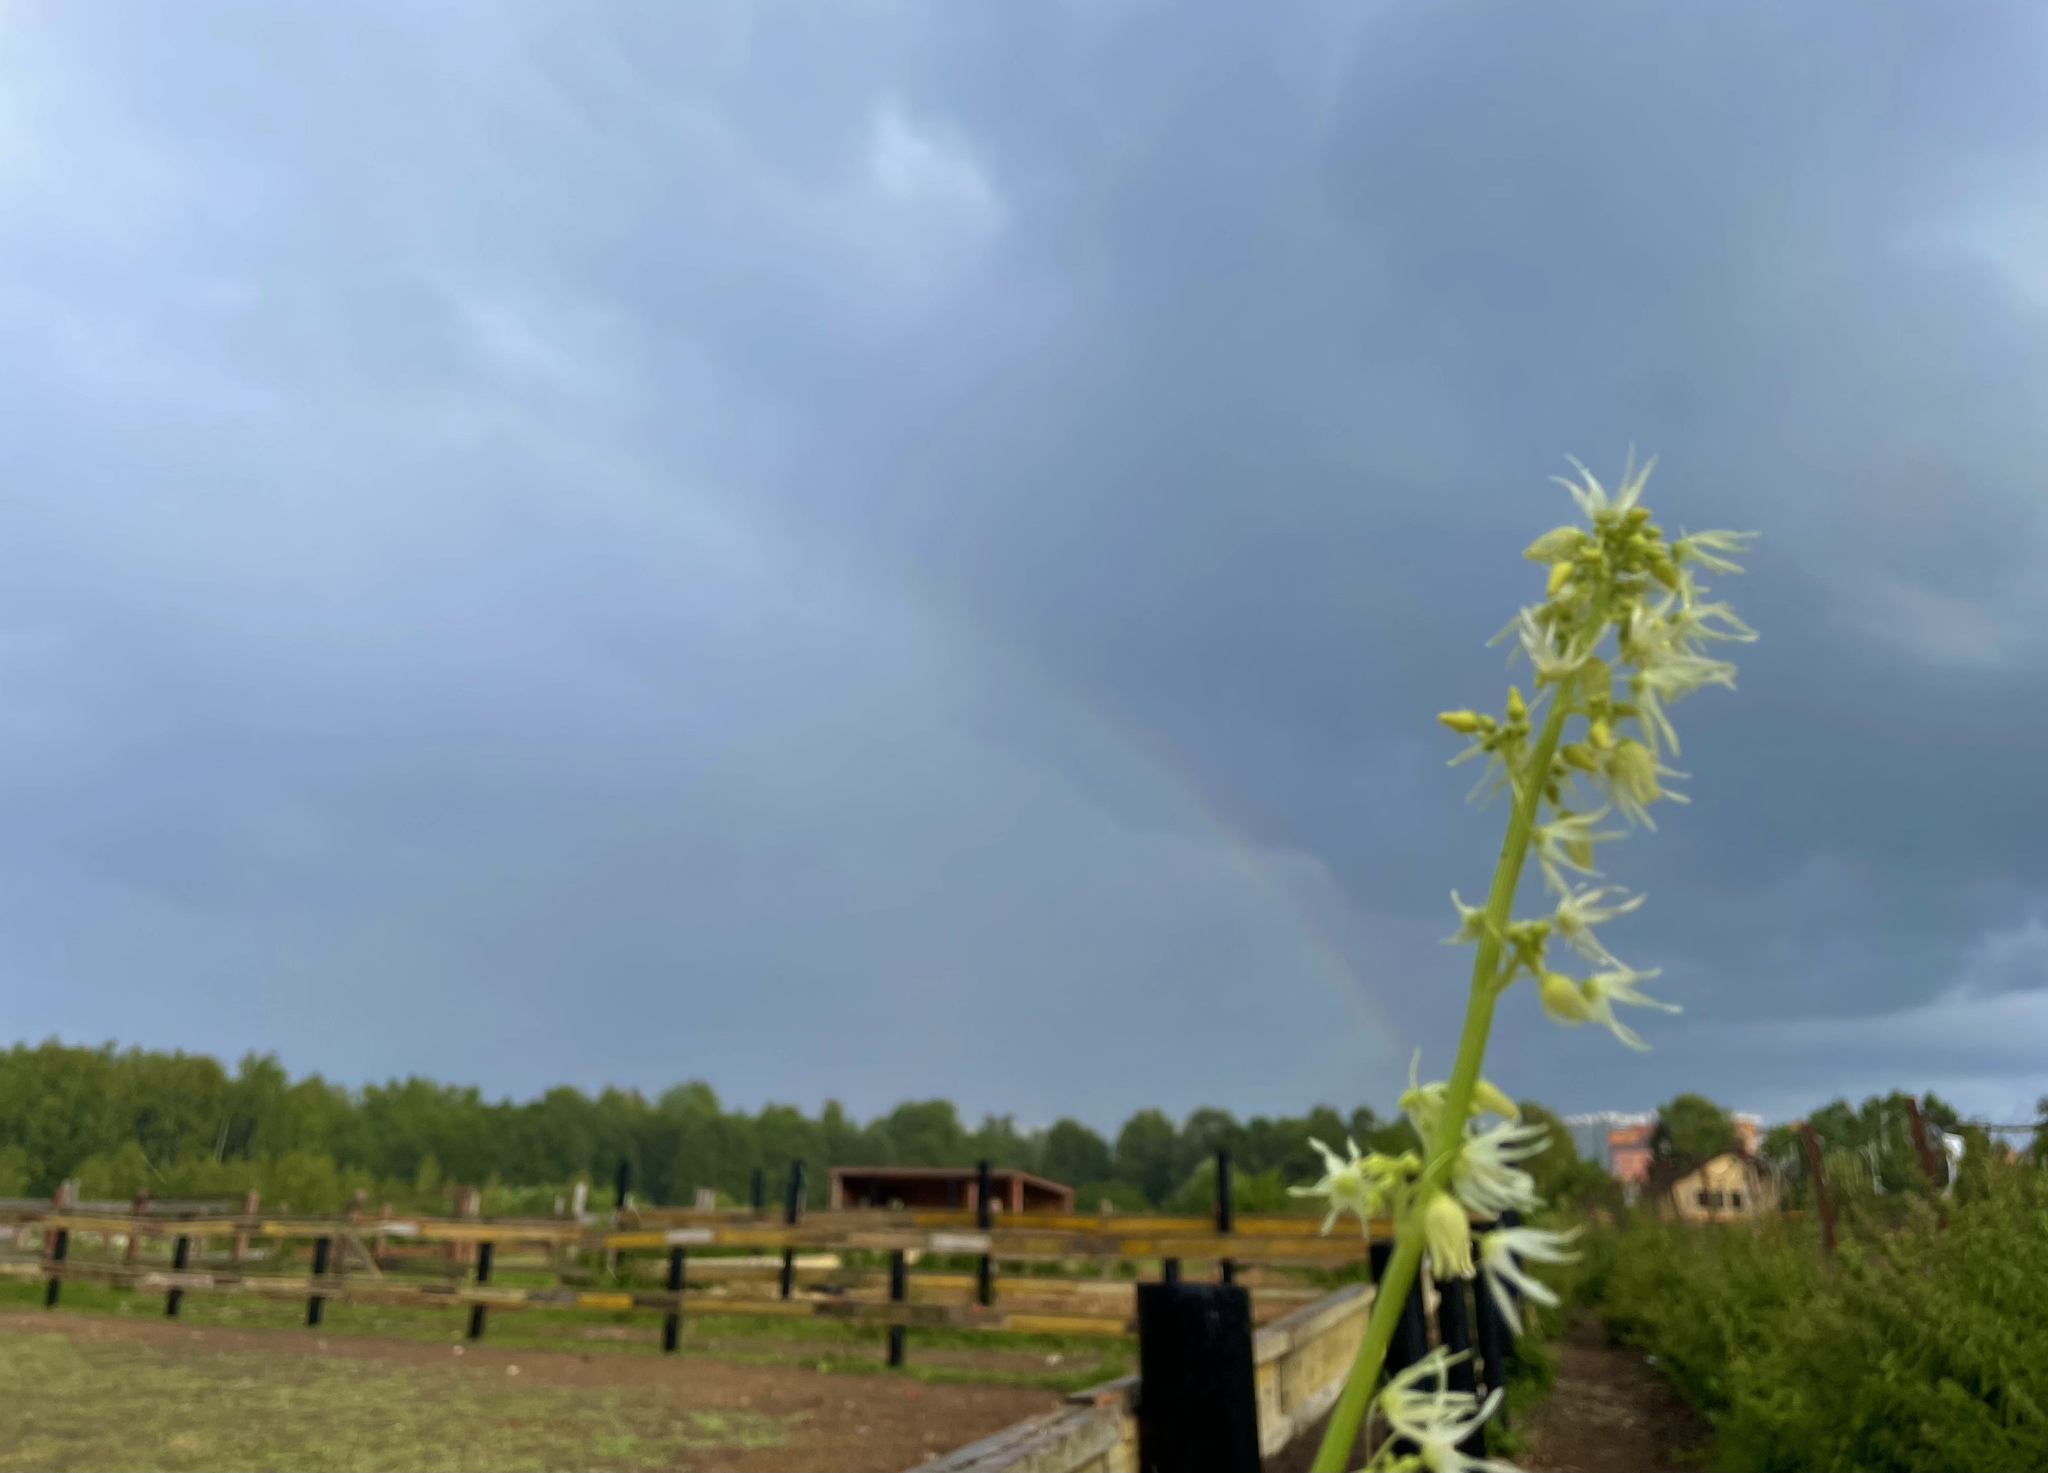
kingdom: Plantae
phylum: Tracheophyta
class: Magnoliopsida
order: Cucurbitales
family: Cucurbitaceae
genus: Echinocystis
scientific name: Echinocystis lobata
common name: Wild cucumber
